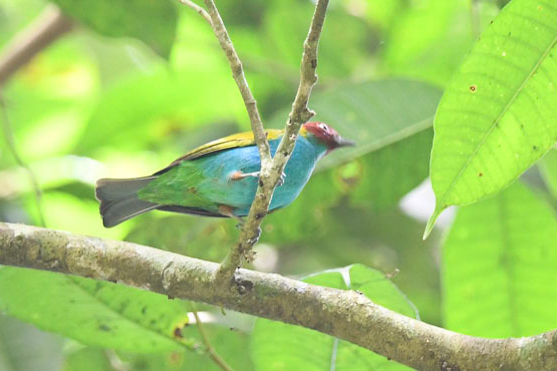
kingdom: Animalia
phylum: Chordata
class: Aves
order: Passeriformes
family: Thraupidae
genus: Tangara
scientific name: Tangara gyrola
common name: Bay-headed tanager
